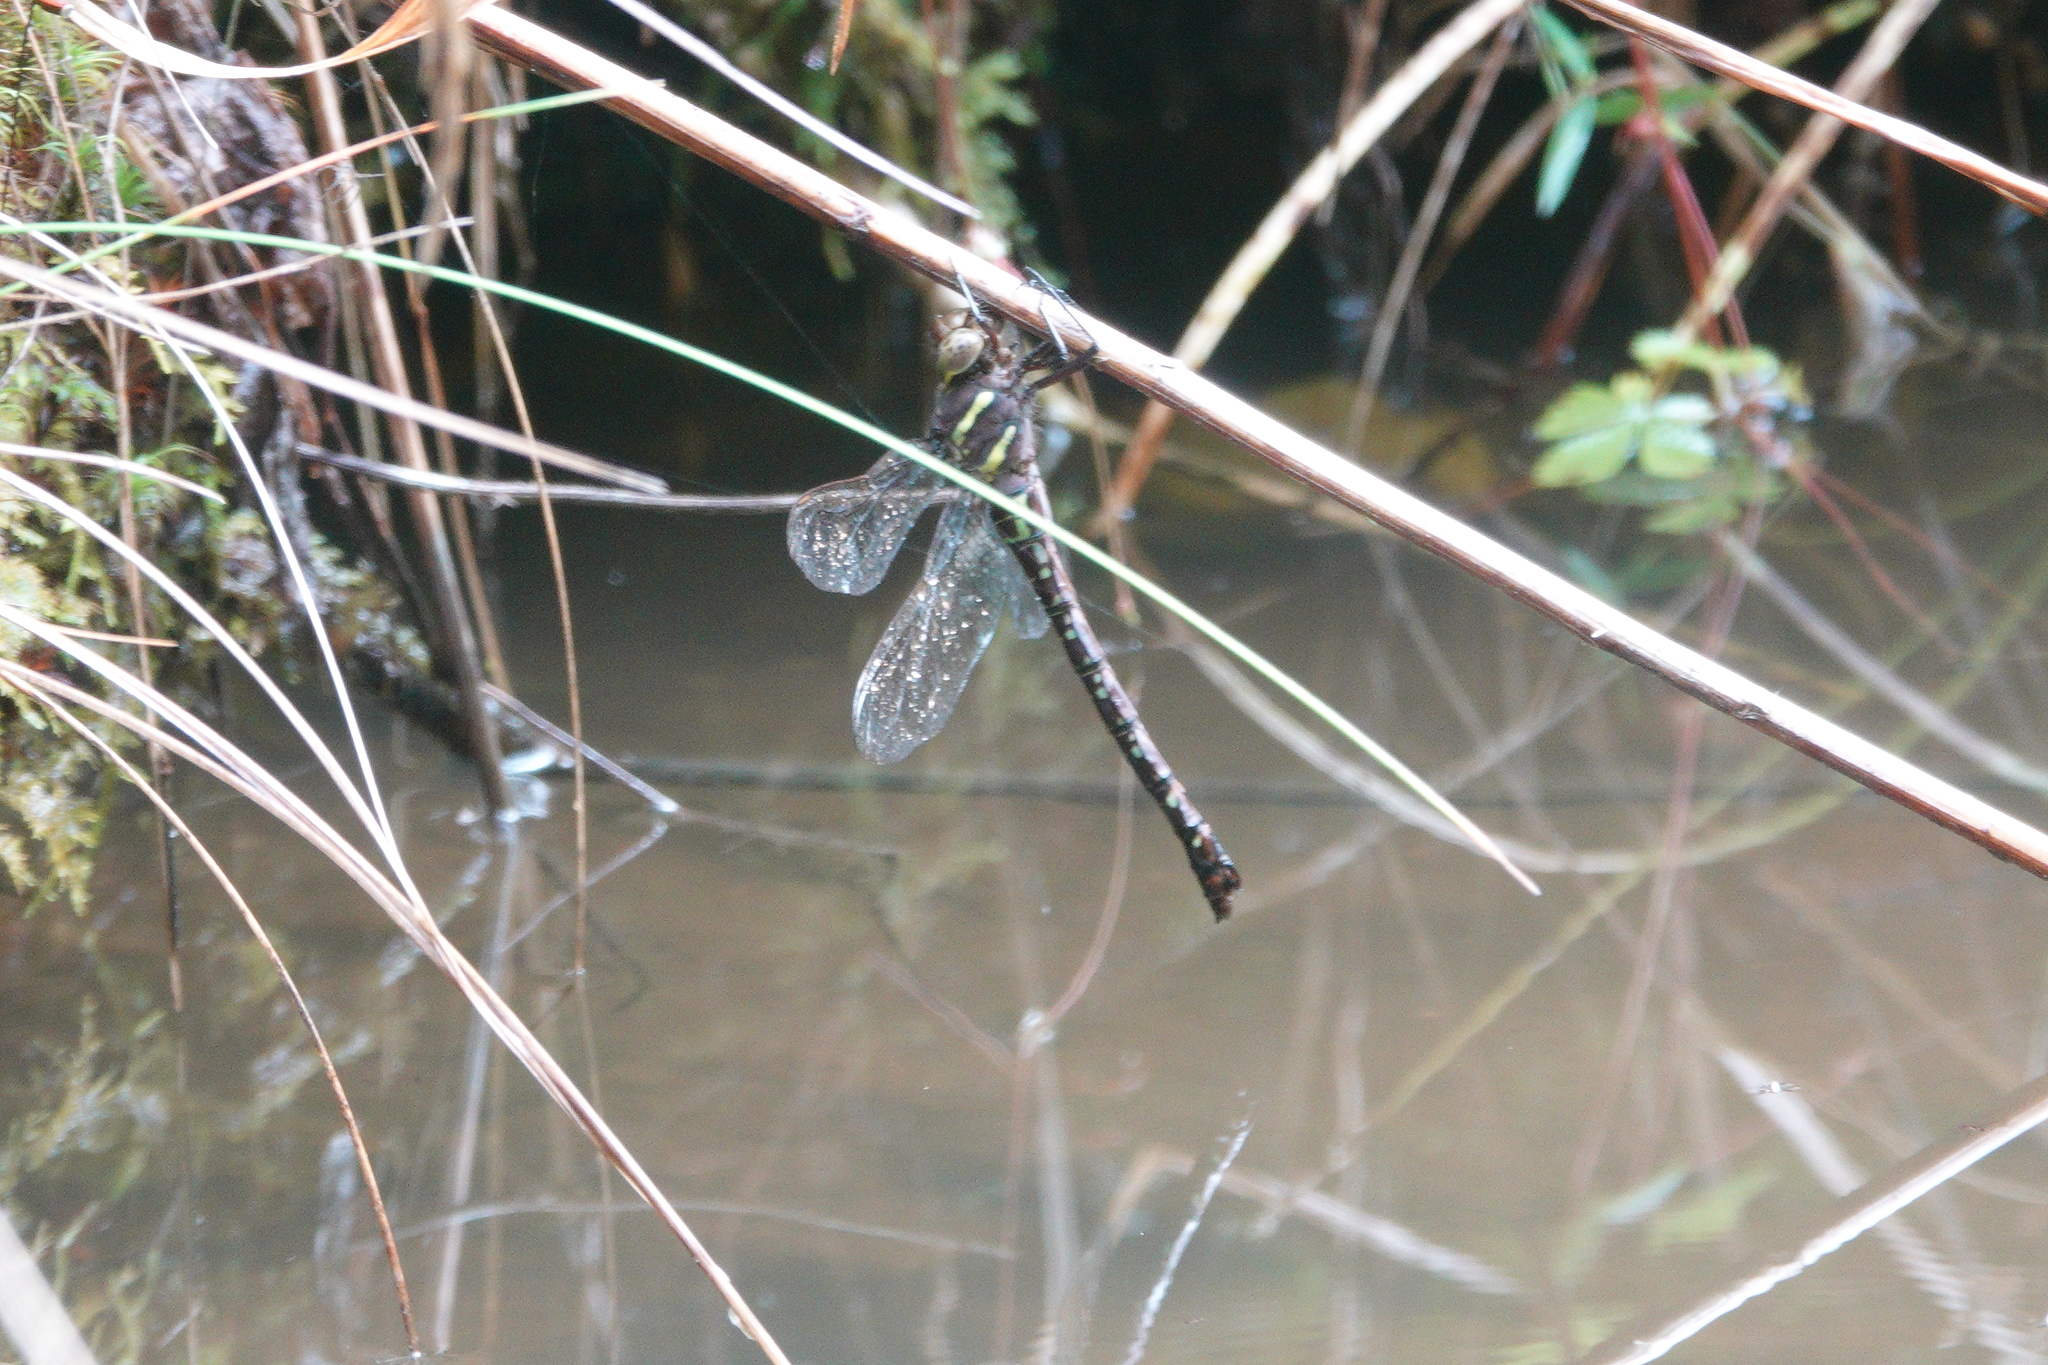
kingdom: Animalia
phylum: Arthropoda
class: Insecta
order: Odonata
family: Aeshnidae
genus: Aeshna
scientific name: Aeshna umbrosa
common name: Shadow darner
